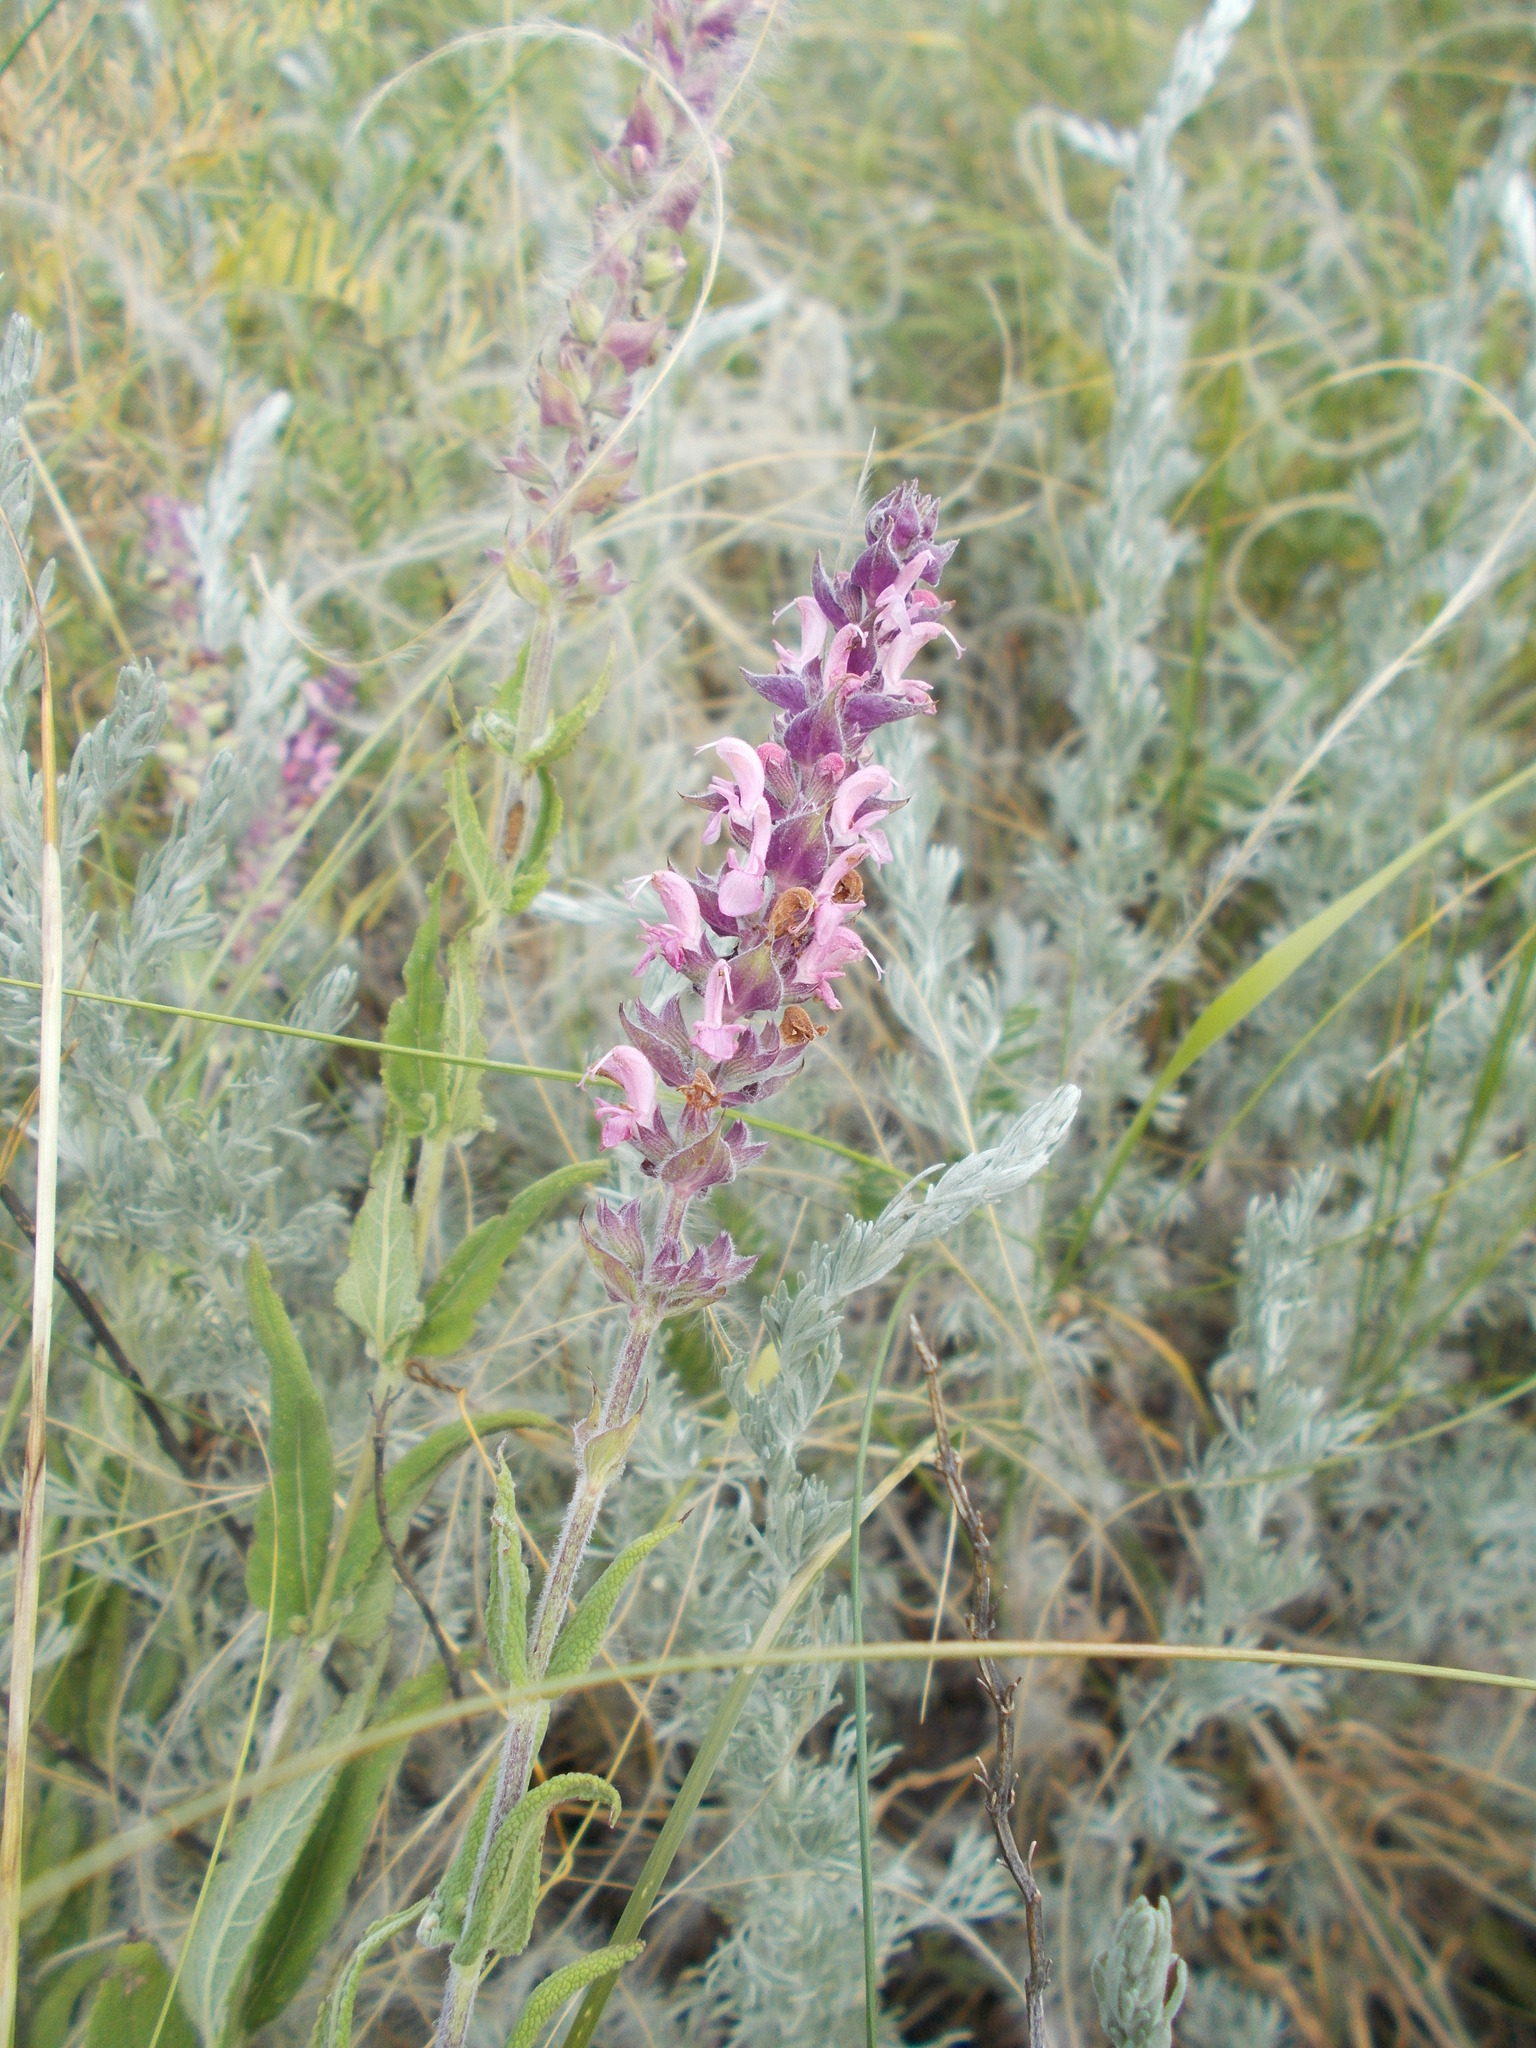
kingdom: Plantae
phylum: Tracheophyta
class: Magnoliopsida
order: Lamiales
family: Lamiaceae
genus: Salvia
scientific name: Salvia nemorosa
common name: Balkan clary
